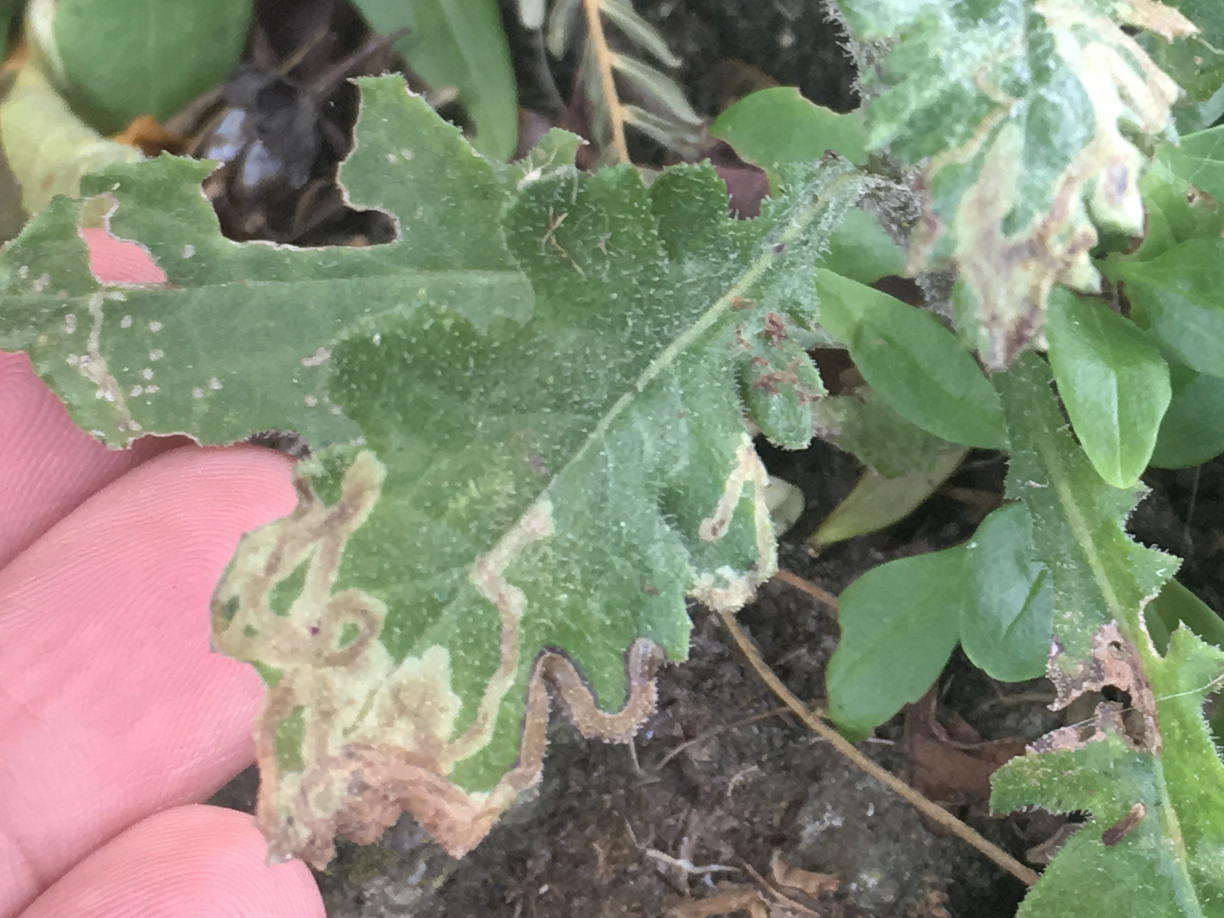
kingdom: Animalia
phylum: Arthropoda
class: Insecta
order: Diptera
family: Agromyzidae
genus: Phytomyza
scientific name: Phytomyza syngenesiae
